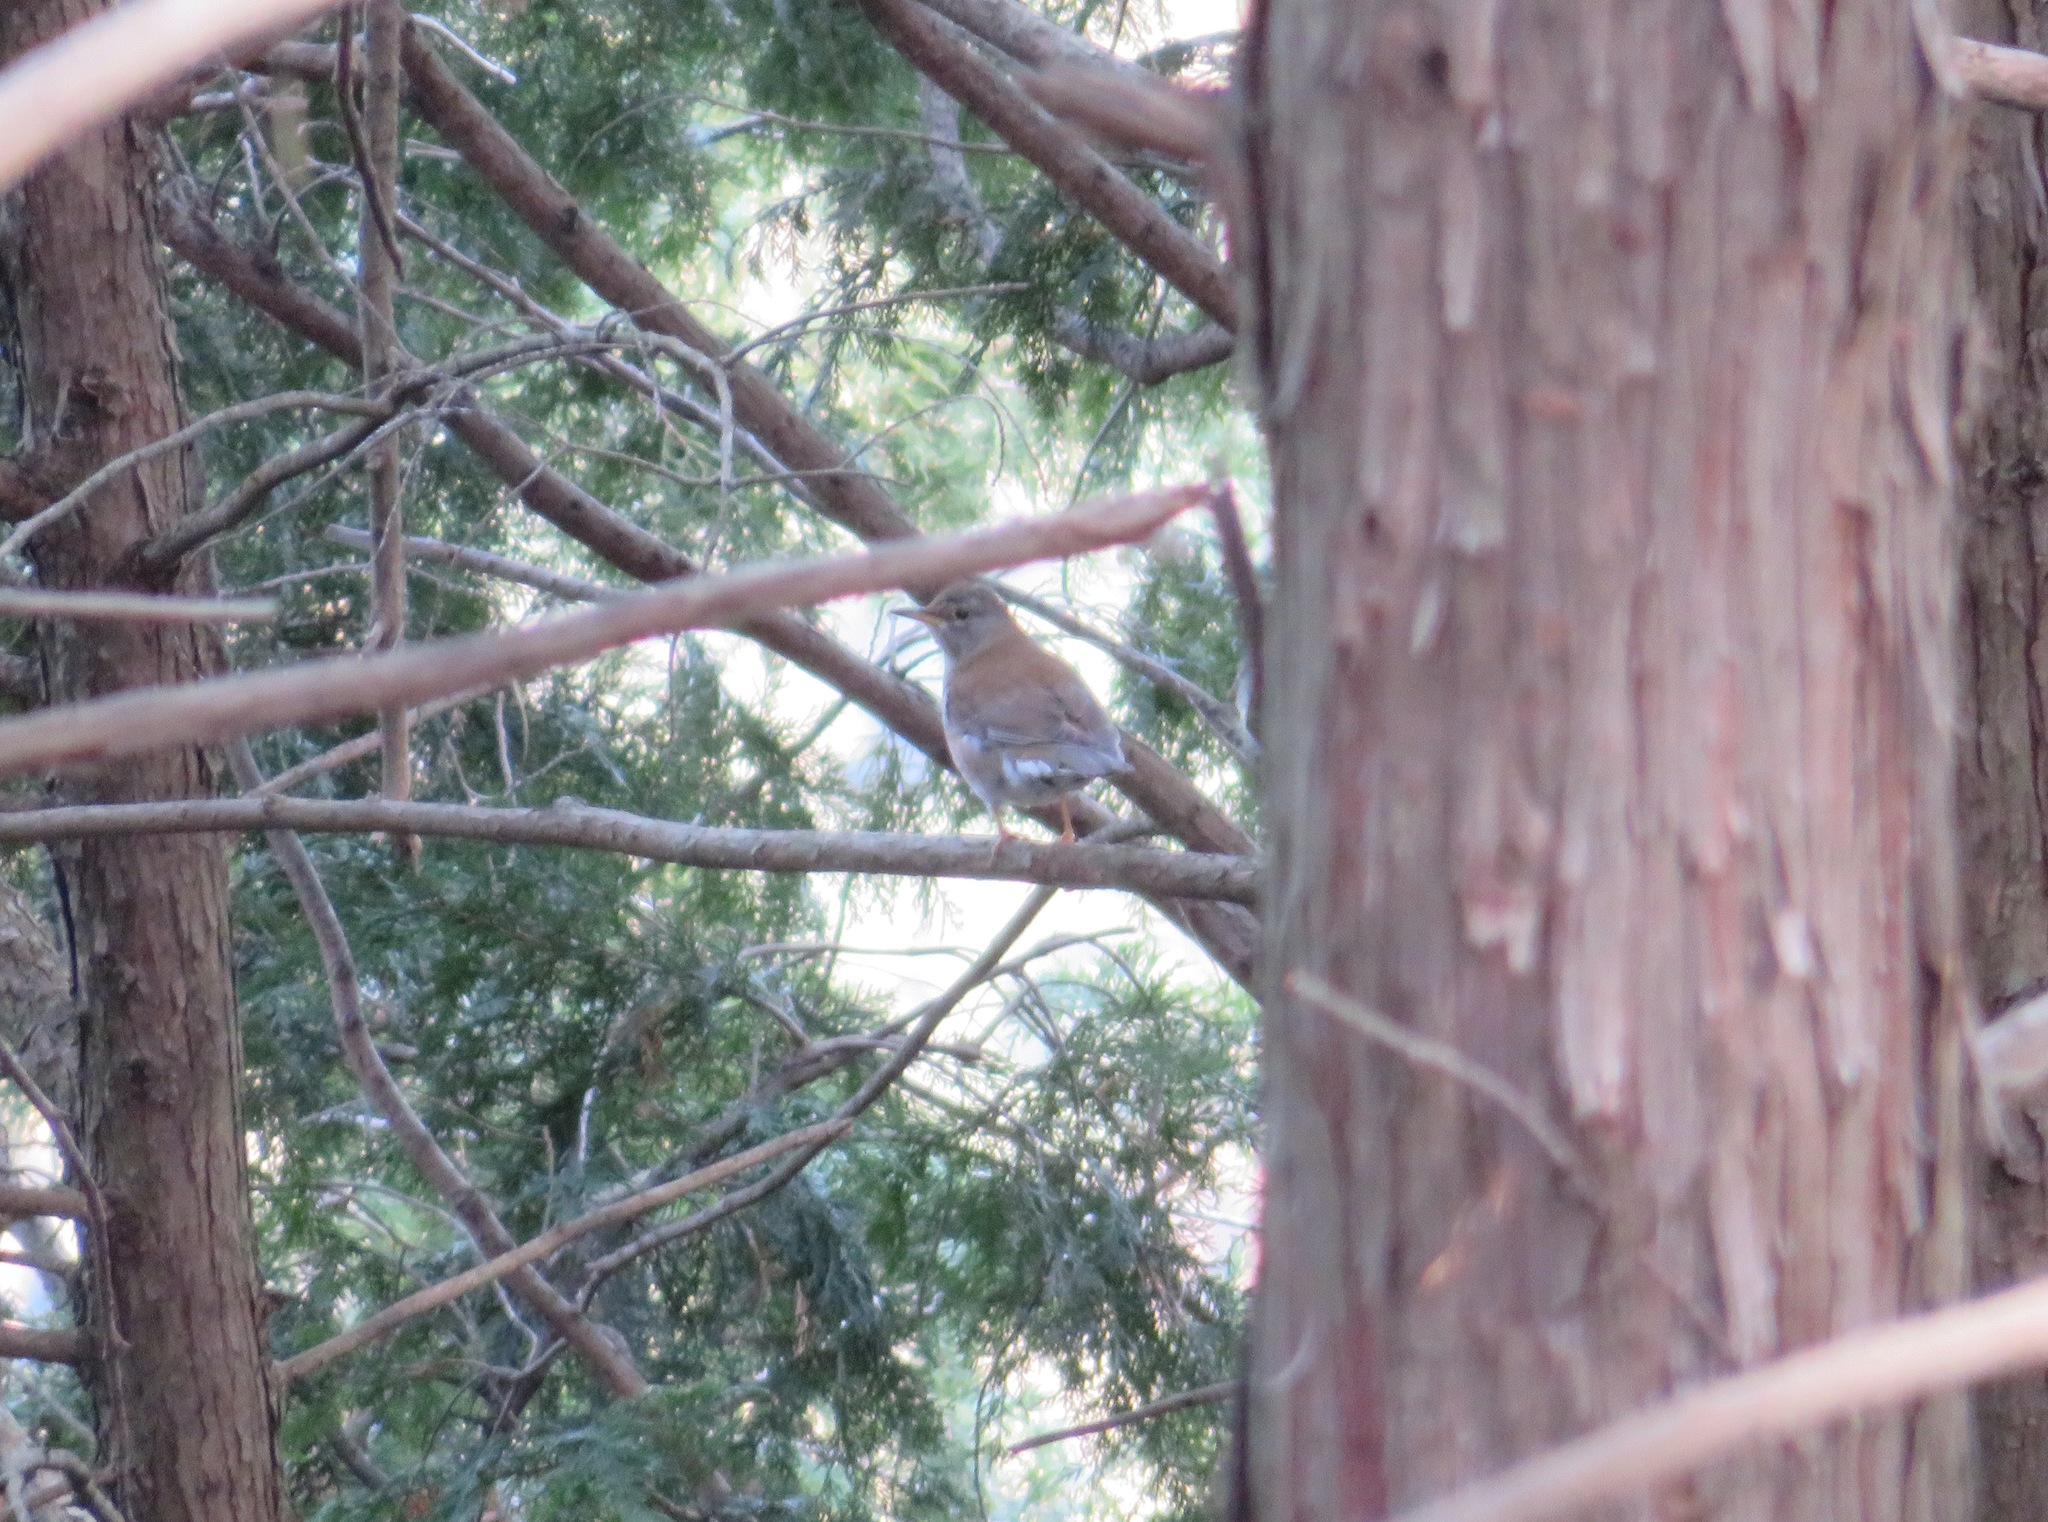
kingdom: Animalia
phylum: Chordata
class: Aves
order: Passeriformes
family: Turdidae
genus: Turdus
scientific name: Turdus pallidus
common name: Pale thrush
